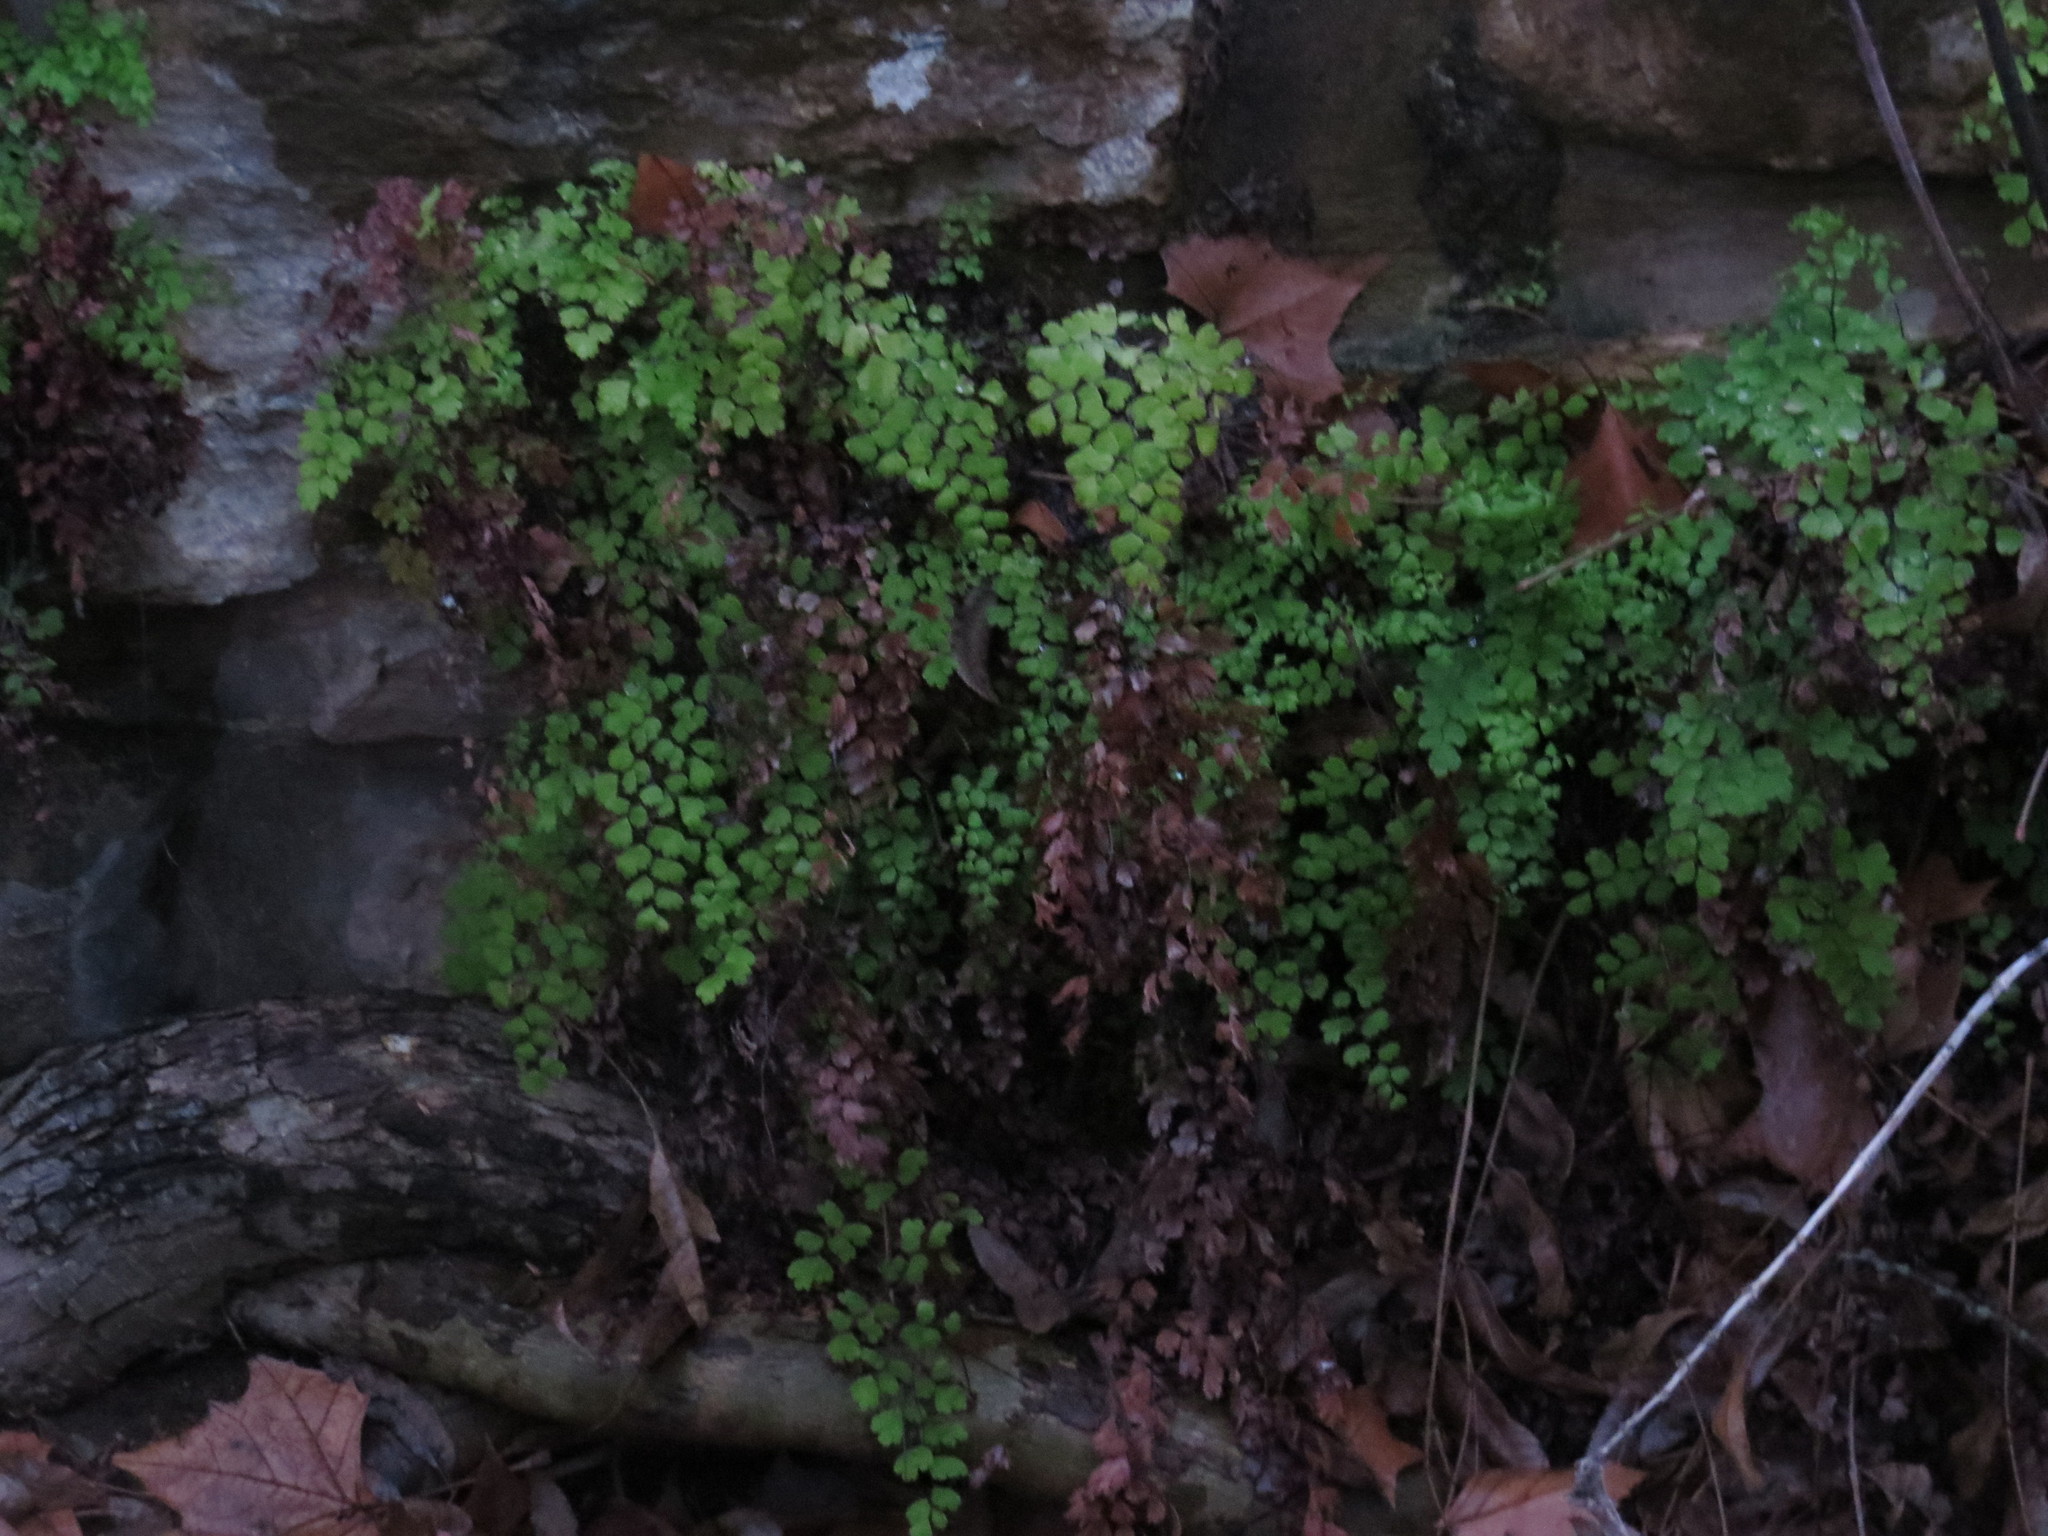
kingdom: Plantae
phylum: Tracheophyta
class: Polypodiopsida
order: Polypodiales
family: Pteridaceae
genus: Adiantum
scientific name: Adiantum capillus-veneris
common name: Maidenhair fern
